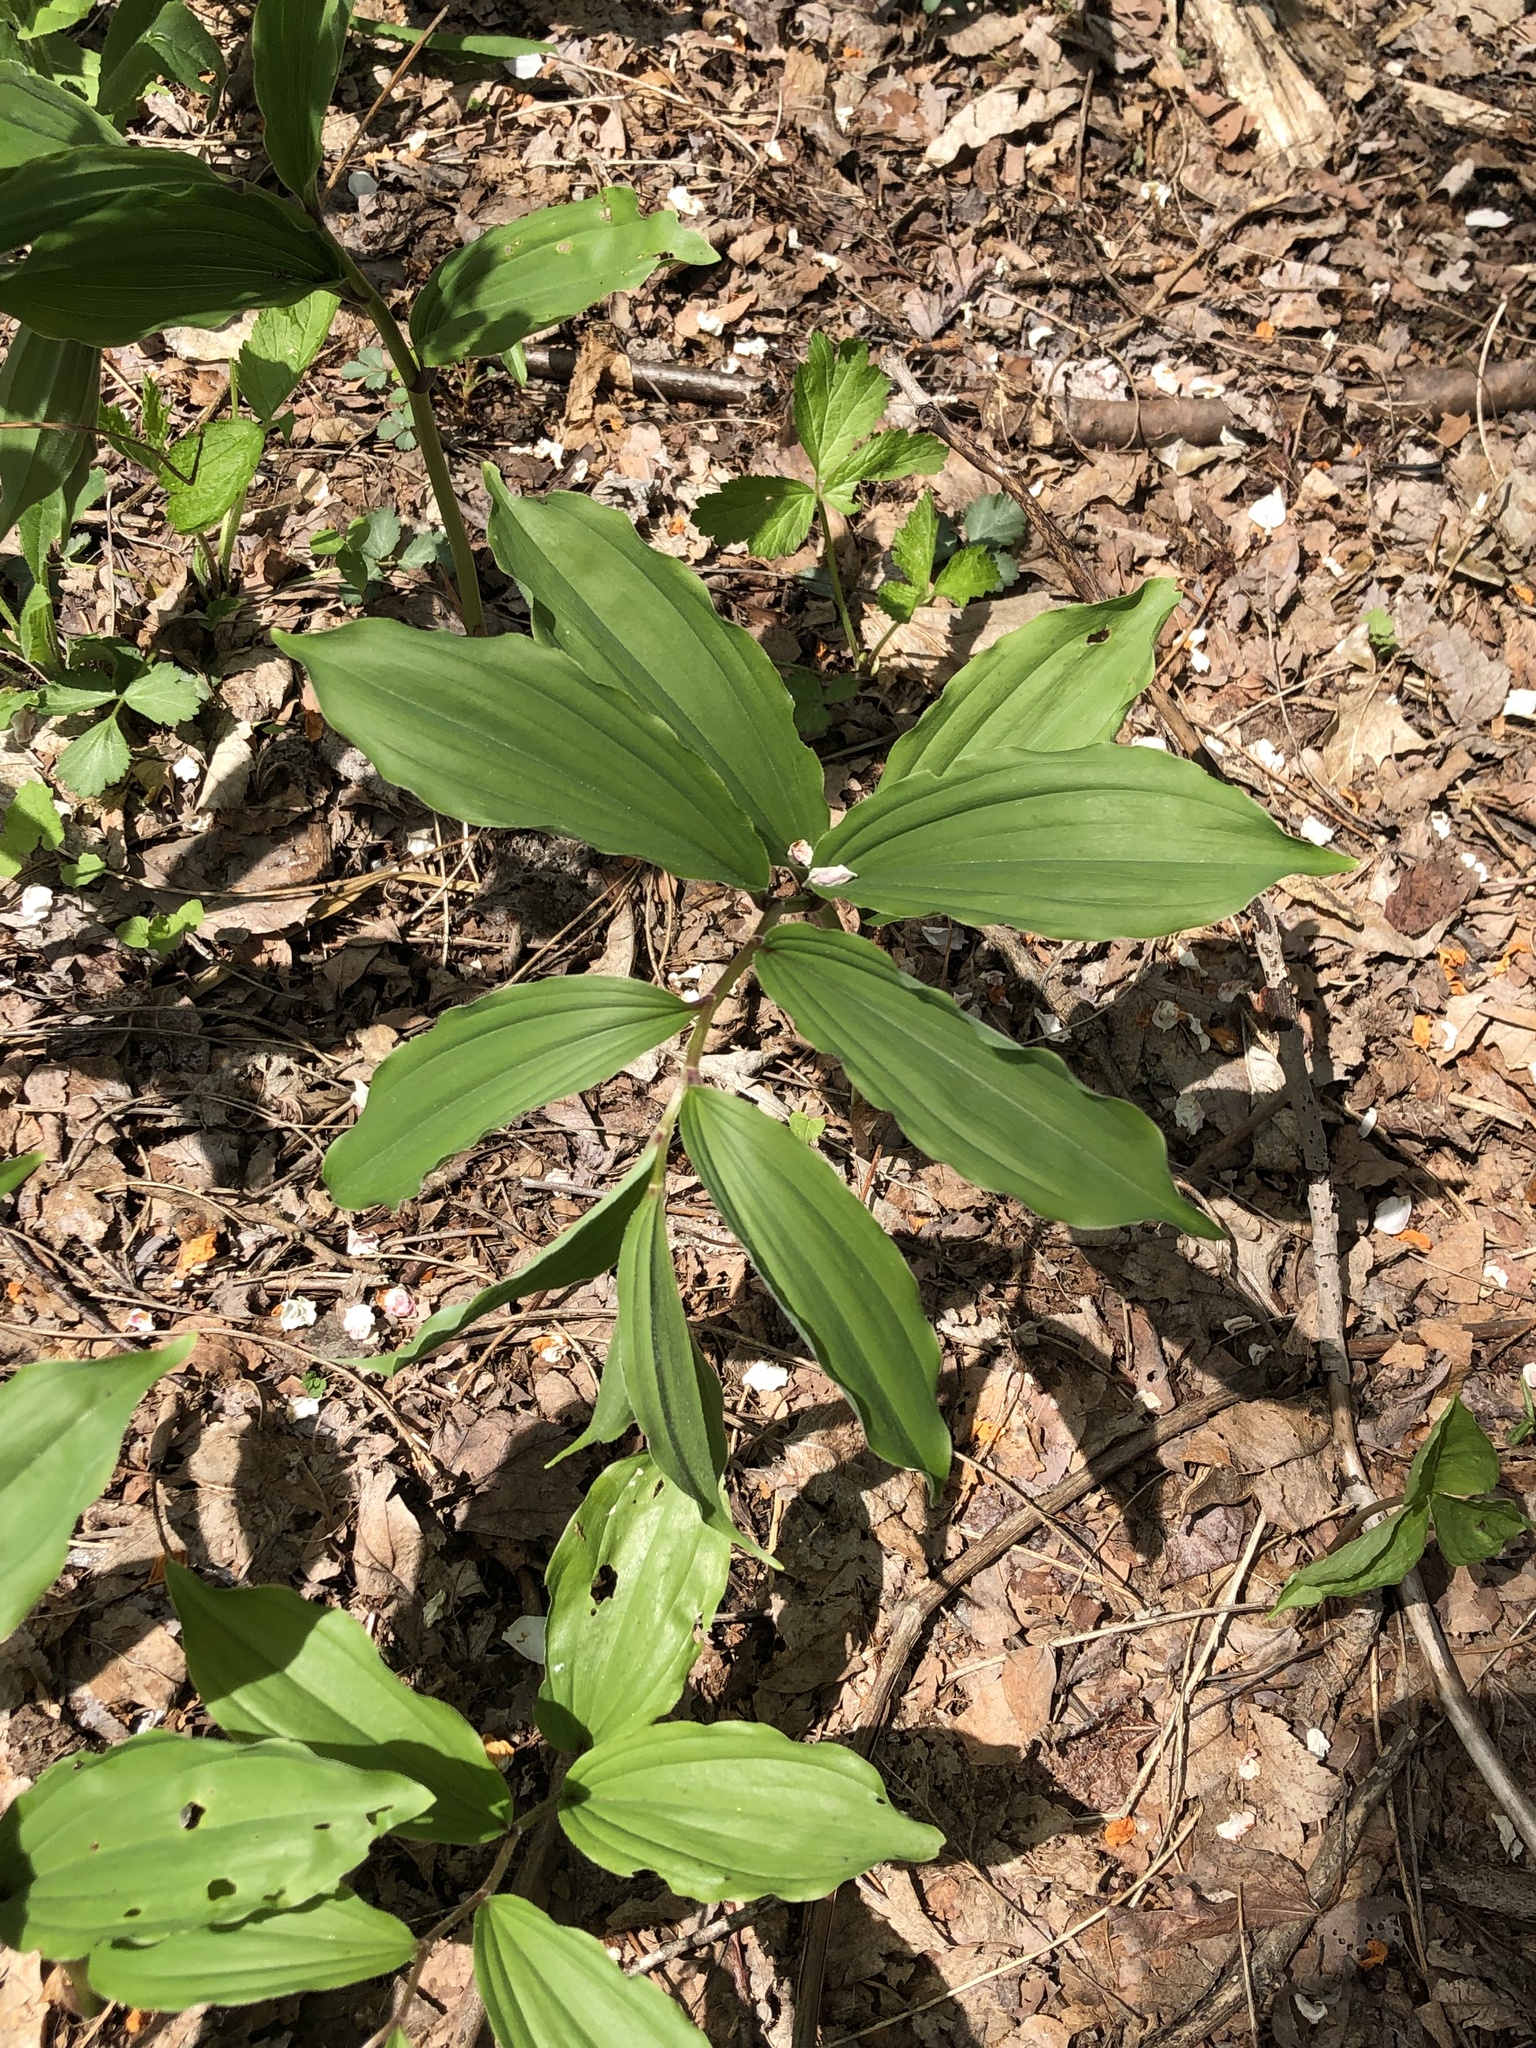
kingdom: Plantae
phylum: Tracheophyta
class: Liliopsida
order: Asparagales
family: Asparagaceae
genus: Maianthemum
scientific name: Maianthemum racemosum
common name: False spikenard
